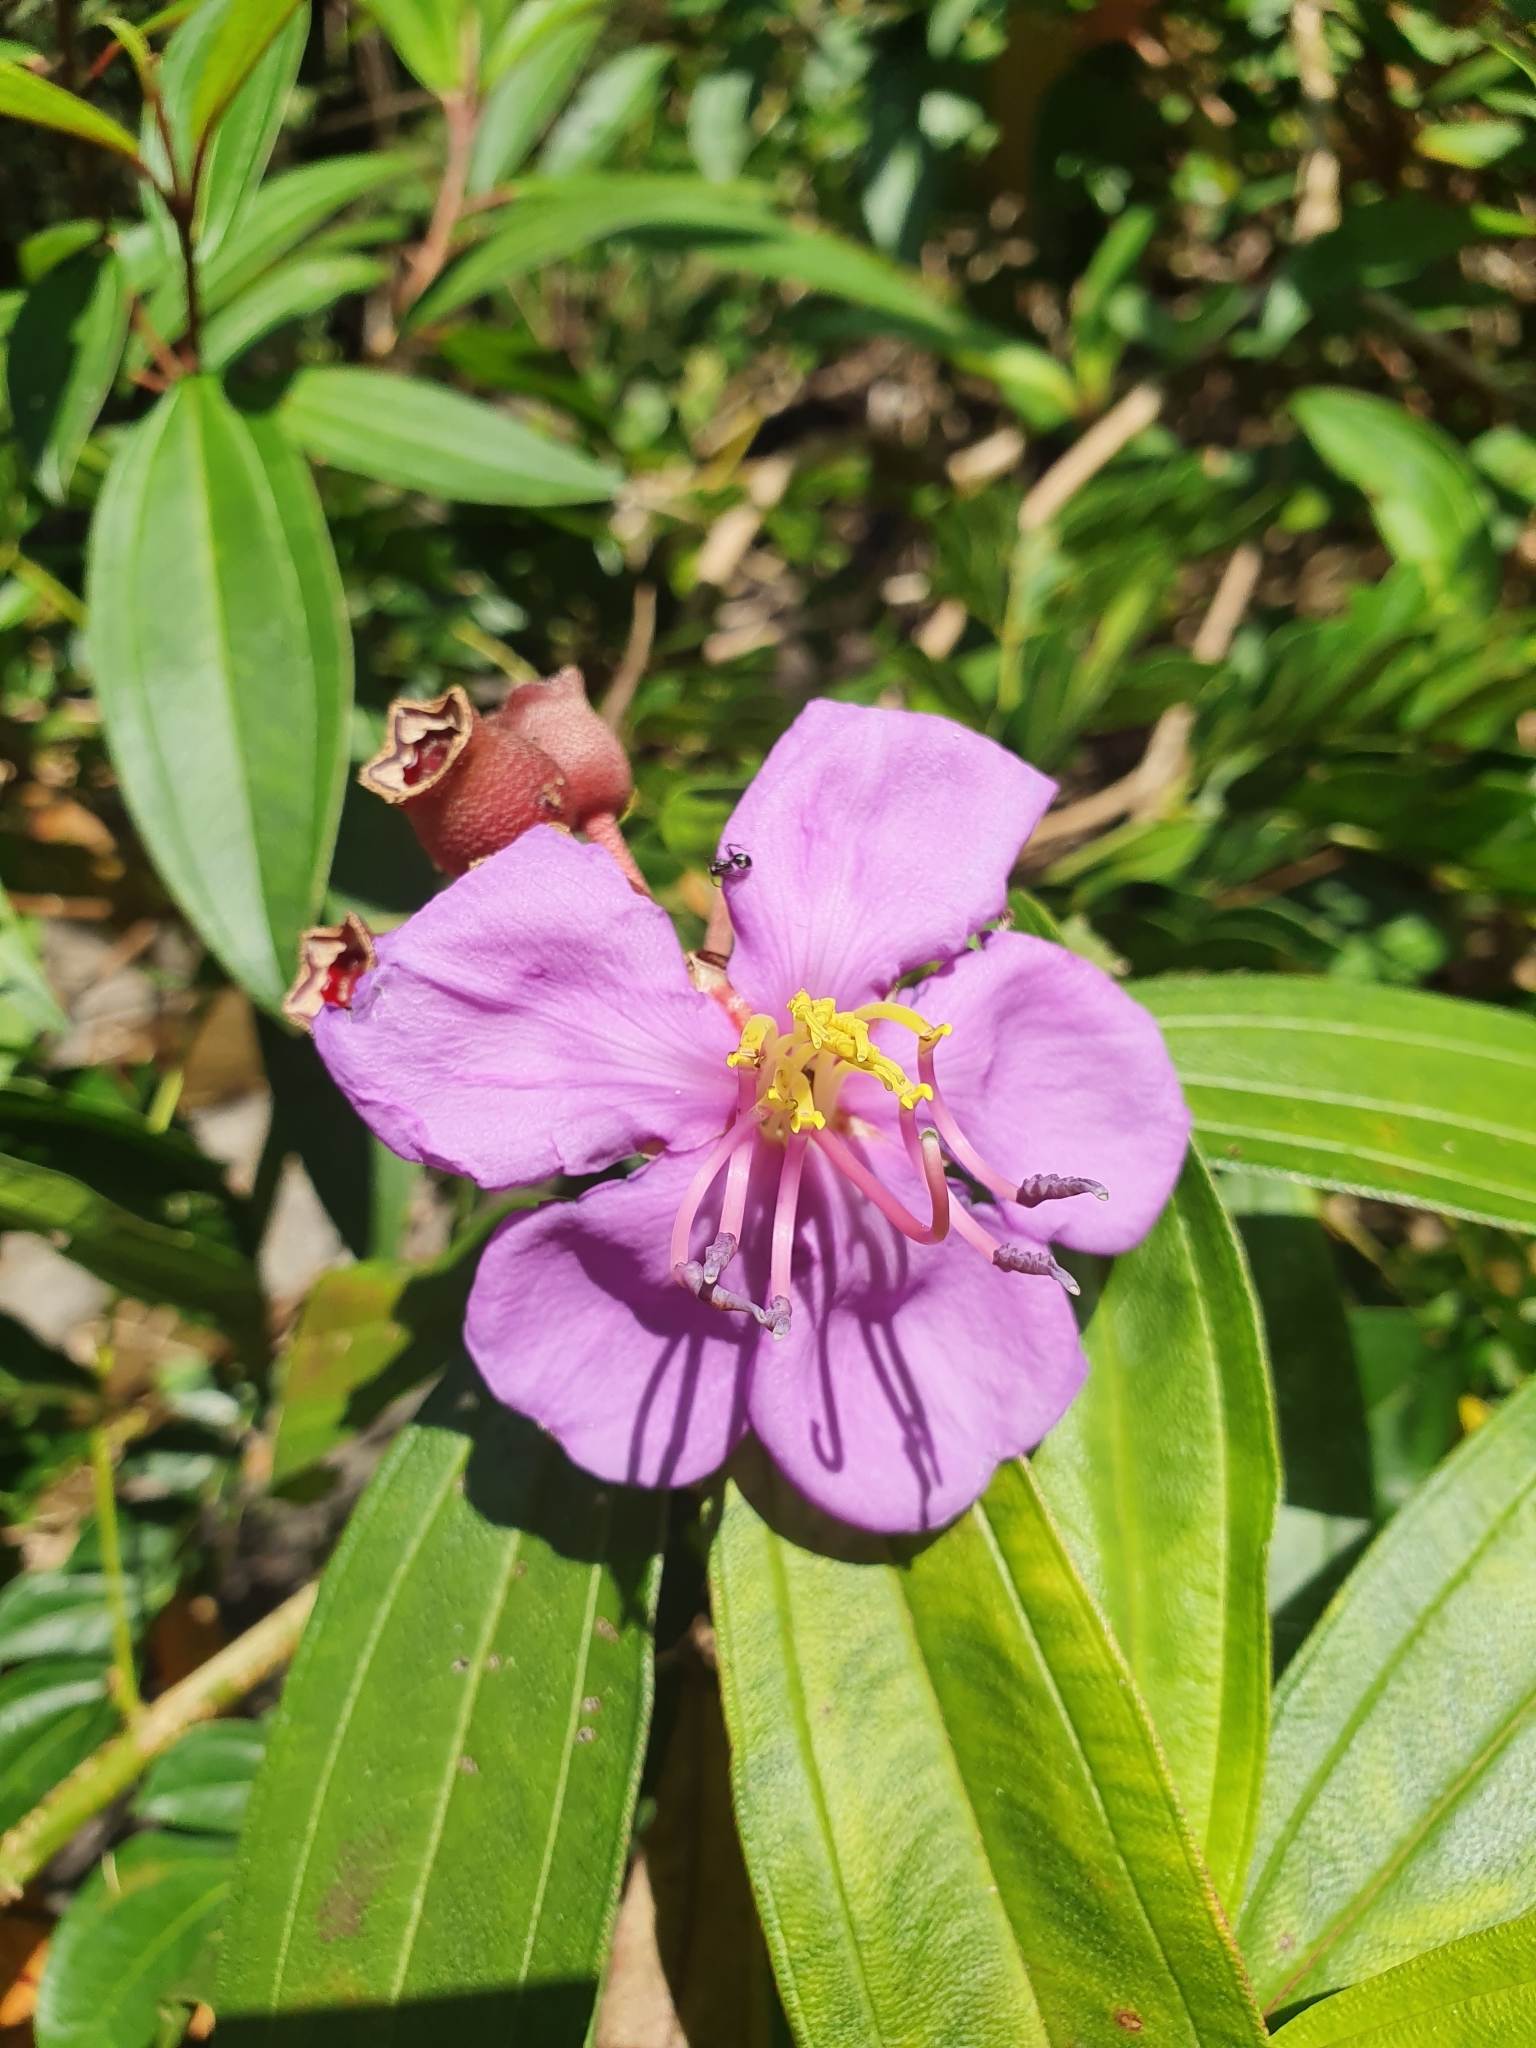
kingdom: Plantae
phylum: Tracheophyta
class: Magnoliopsida
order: Myrtales
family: Melastomataceae
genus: Melastoma
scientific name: Melastoma malabathricum
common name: Indian-rhododendron
